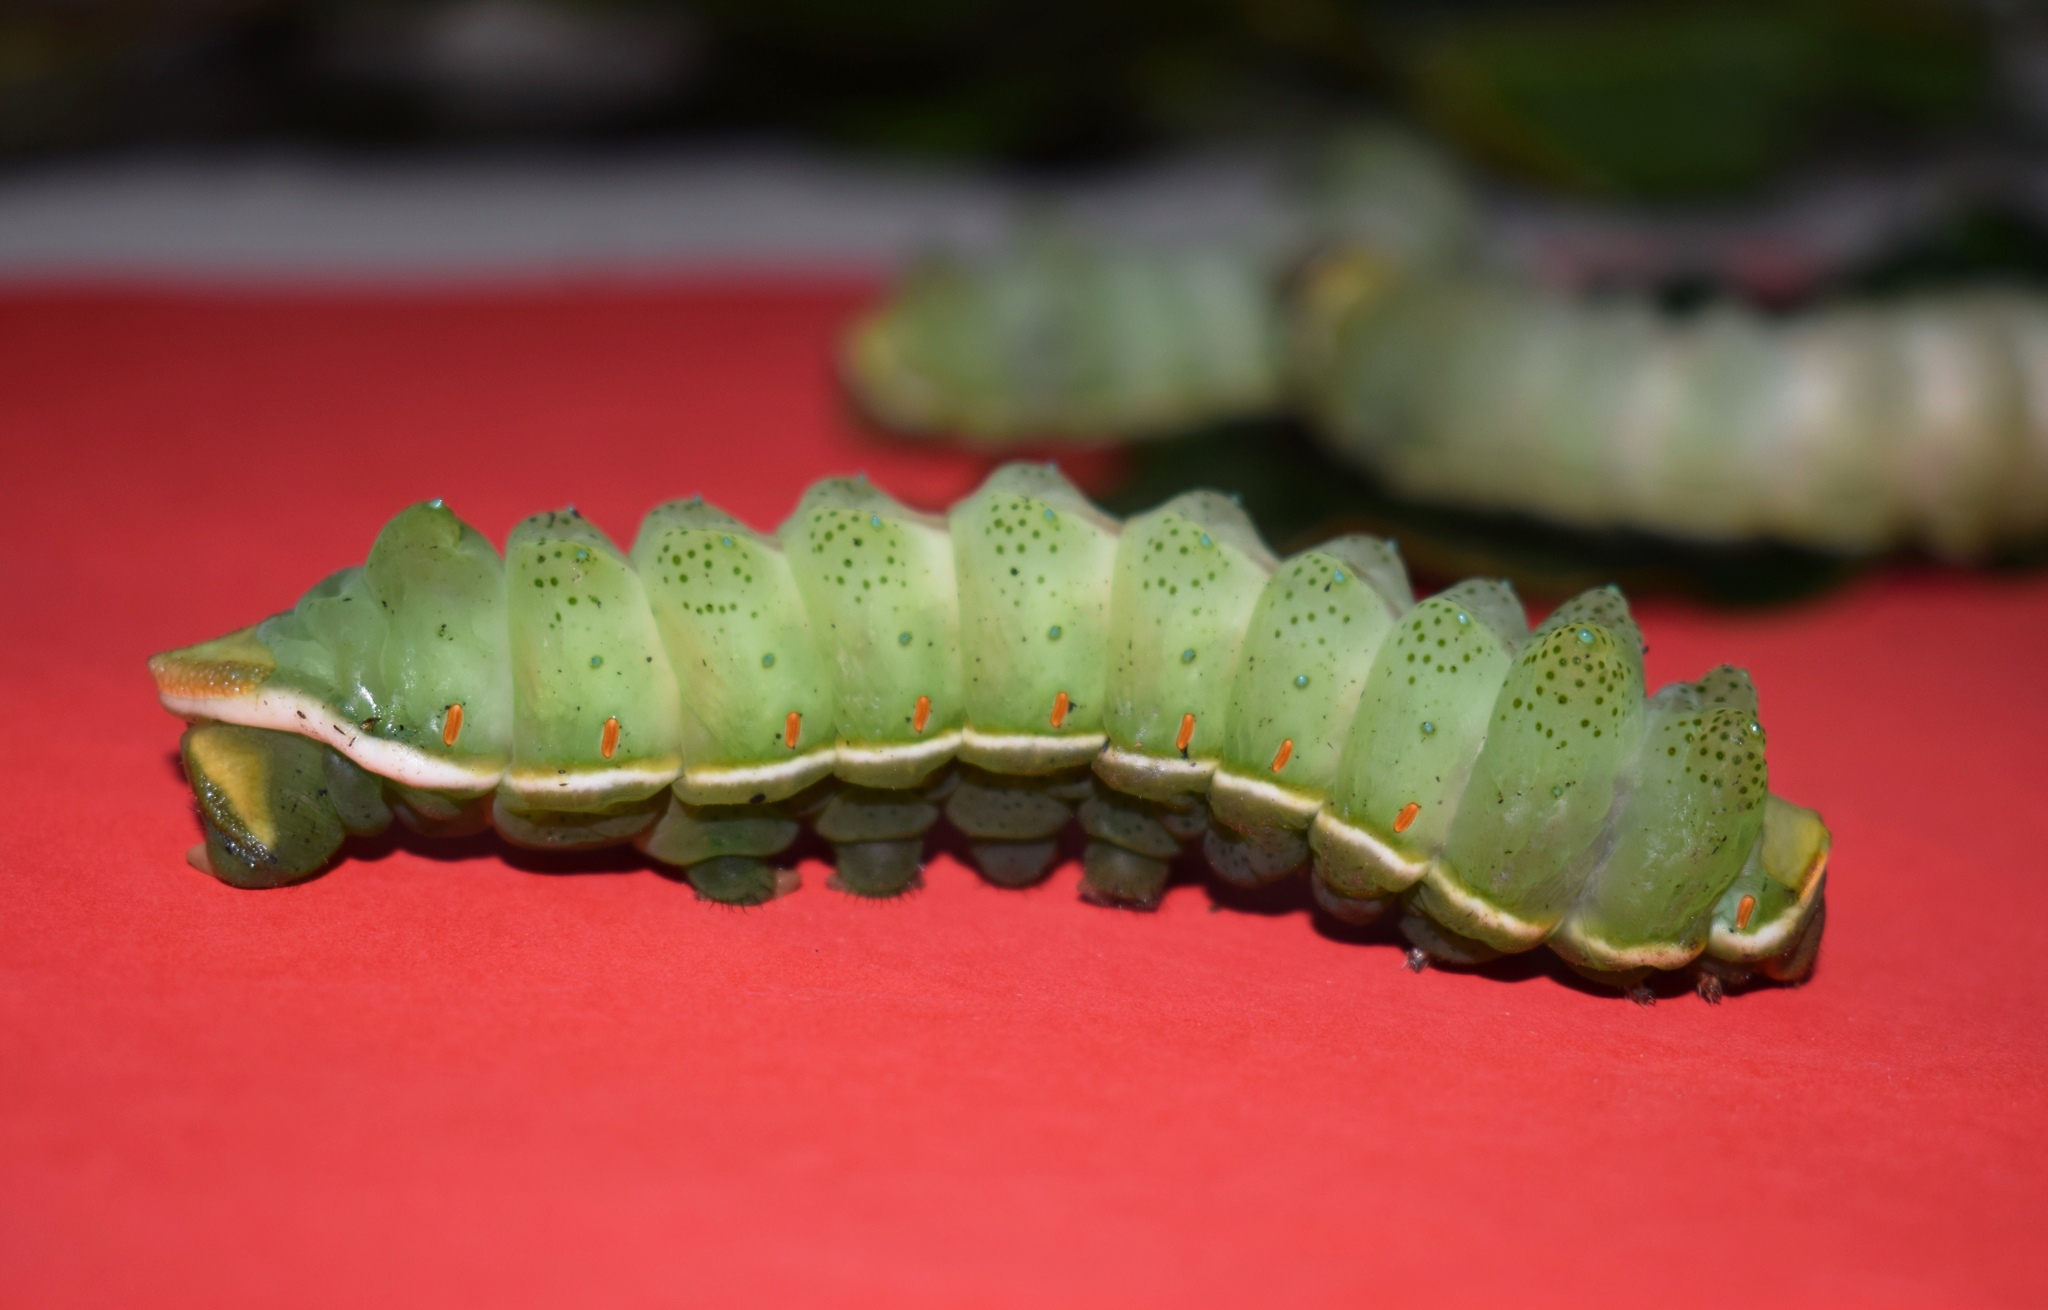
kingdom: Animalia
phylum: Arthropoda
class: Insecta
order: Lepidoptera
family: Saturniidae
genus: Lobobunaea
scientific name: Lobobunaea saturnus
